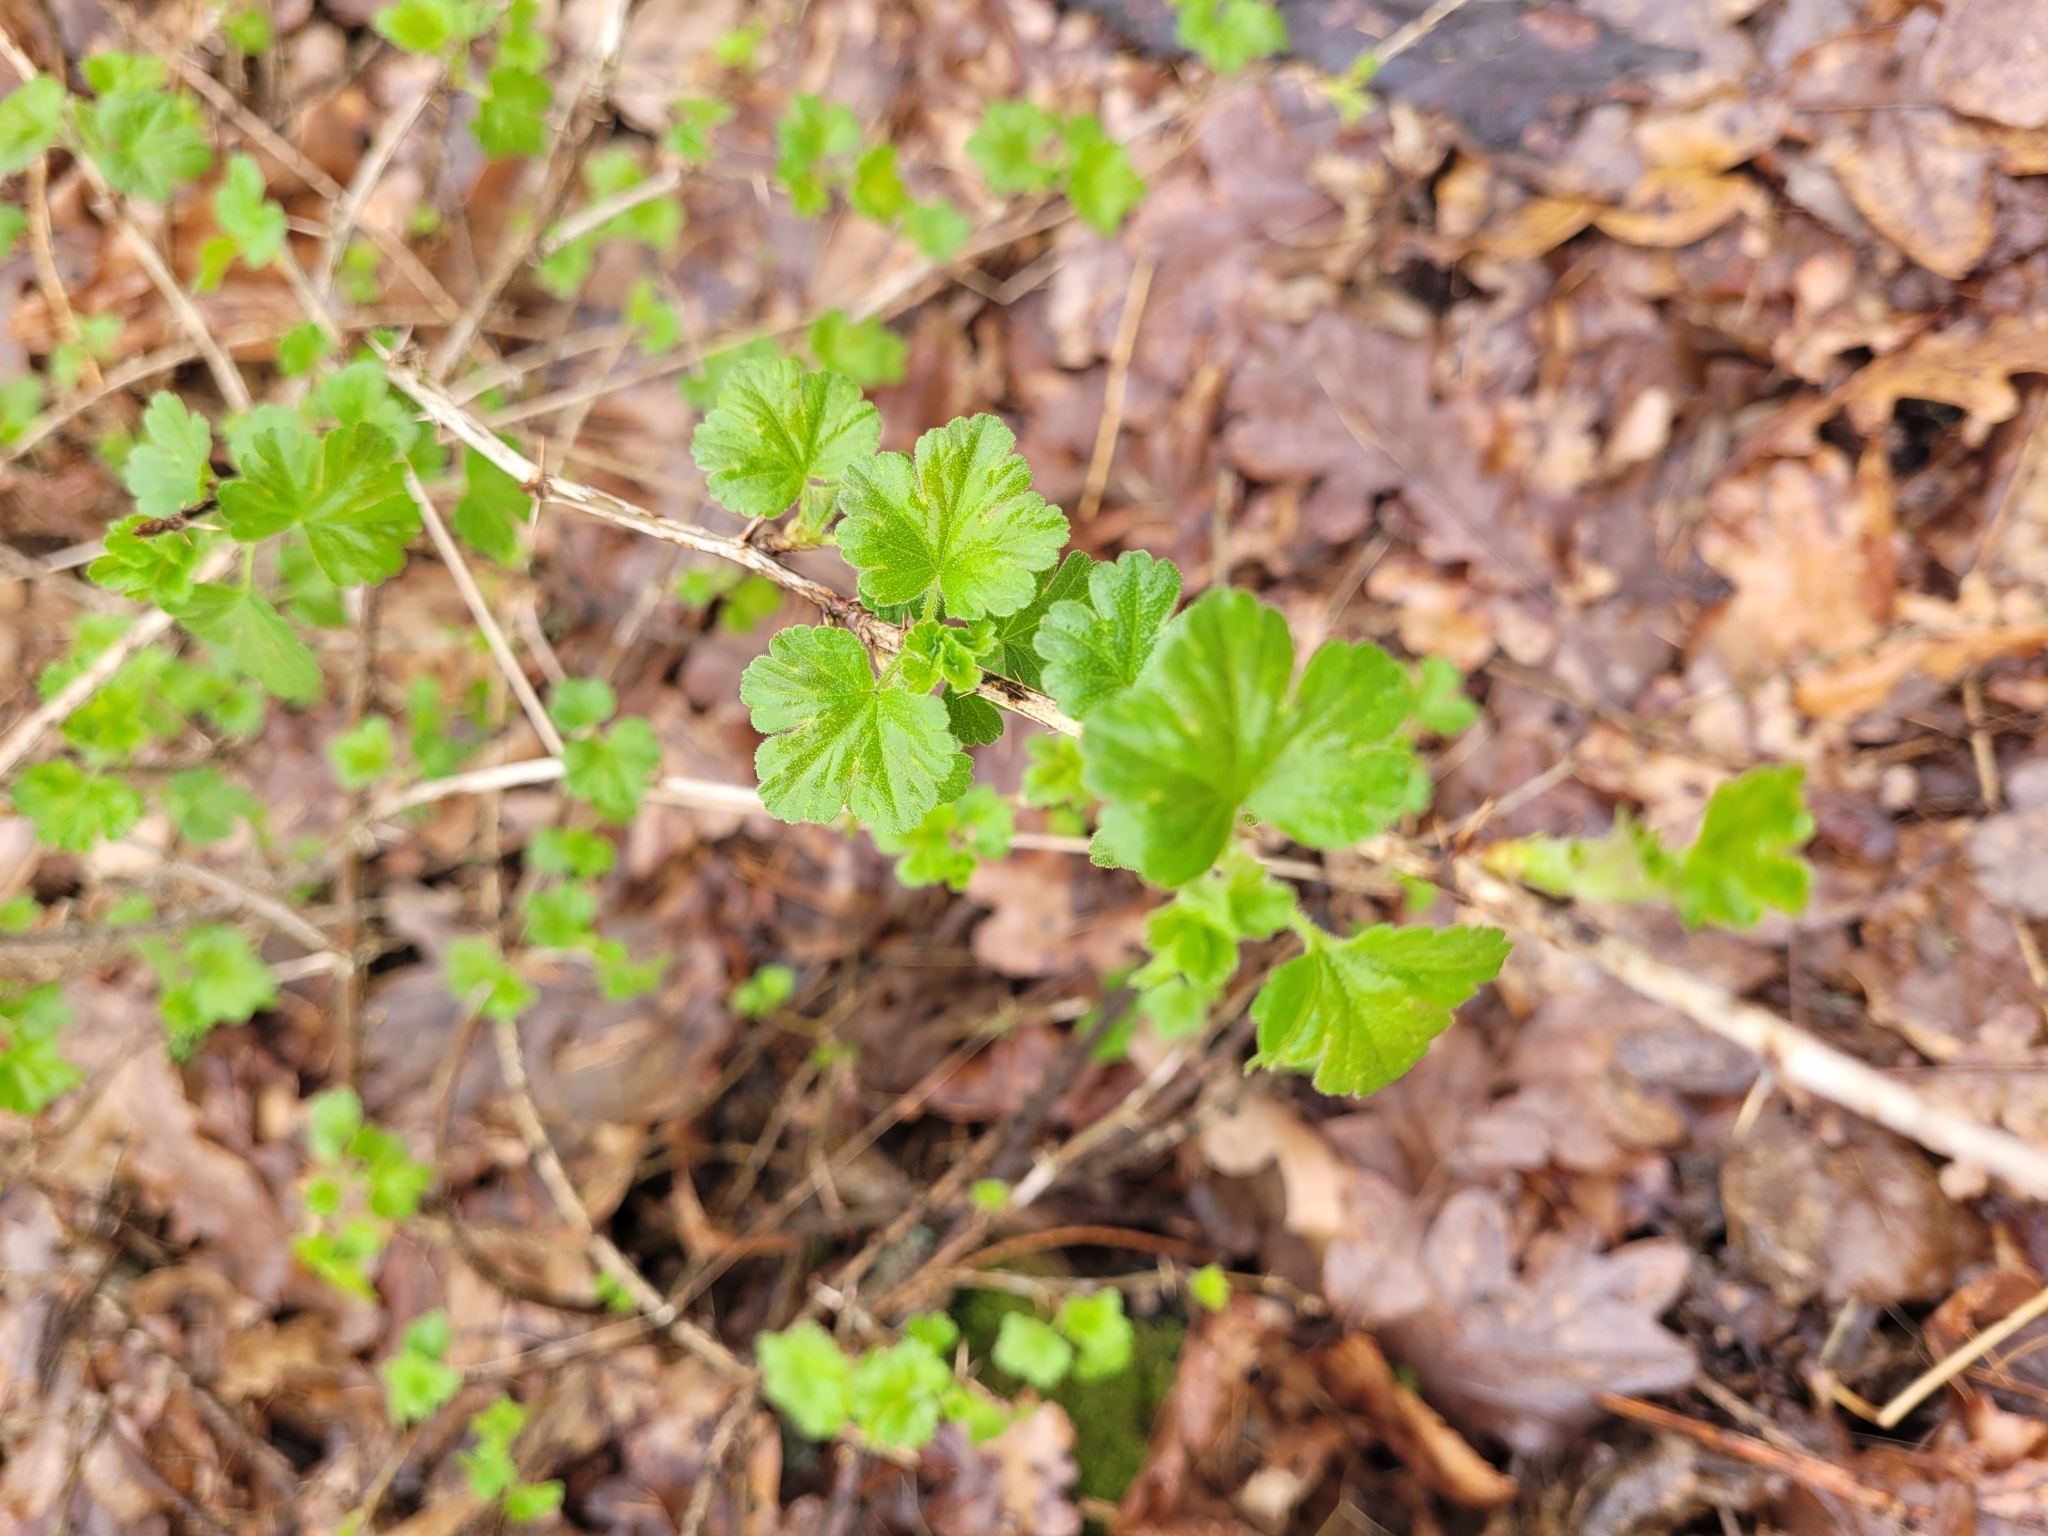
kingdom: Plantae
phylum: Tracheophyta
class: Magnoliopsida
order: Saxifragales
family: Grossulariaceae
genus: Ribes
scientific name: Ribes uva-crispa
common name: Gooseberry
